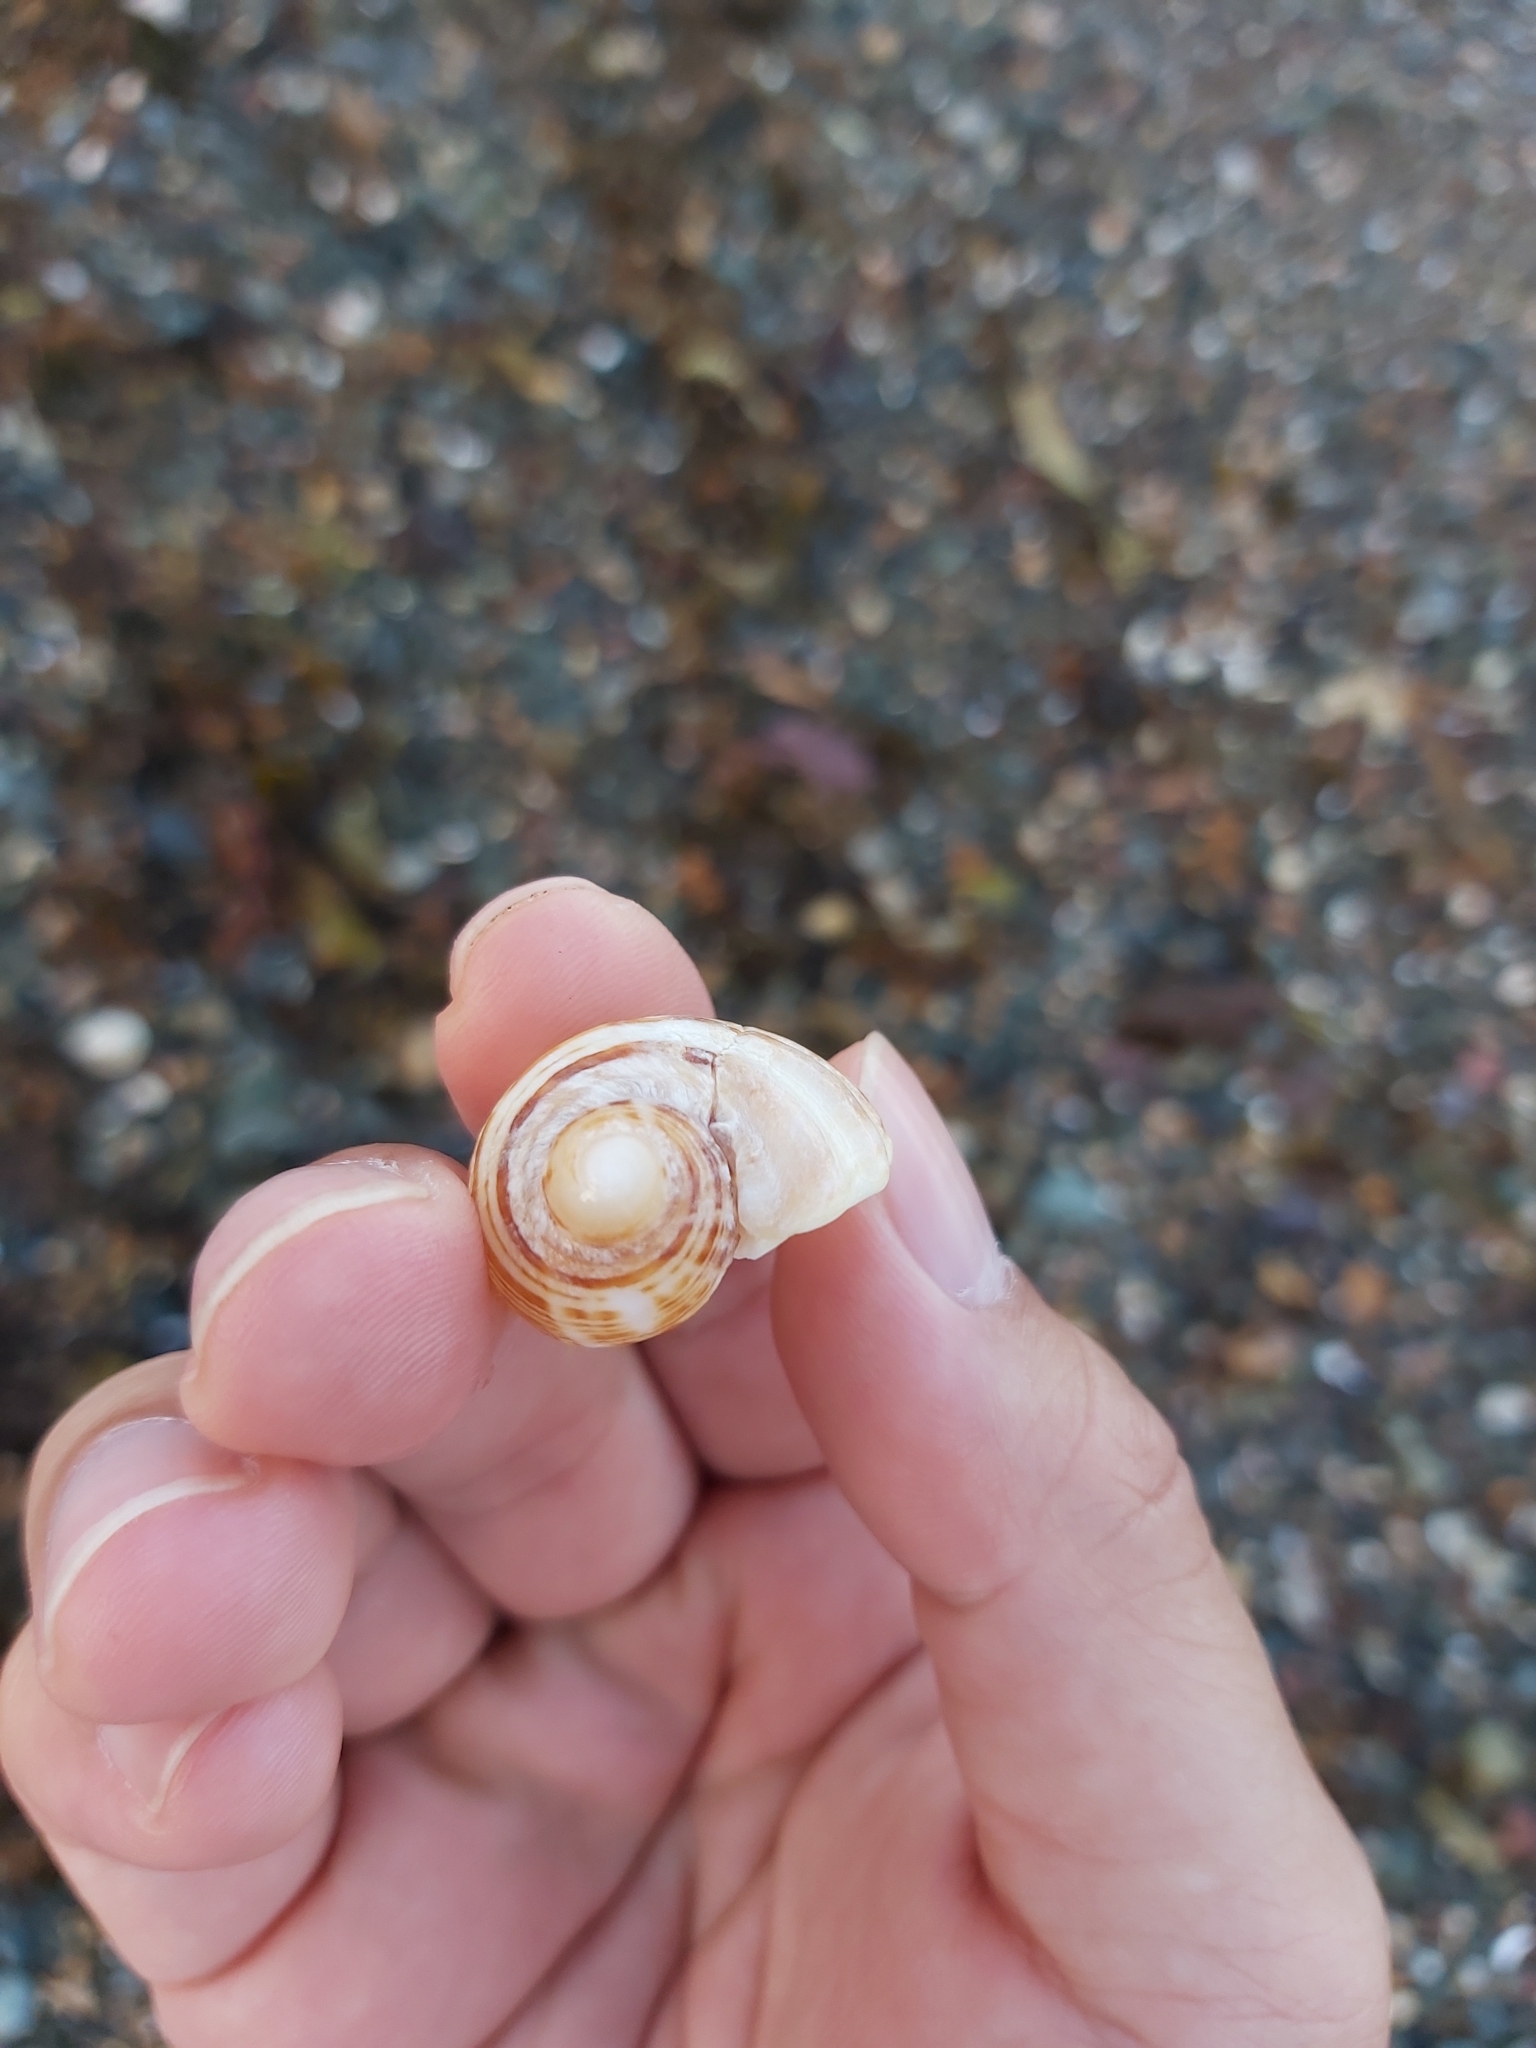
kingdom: Animalia
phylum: Mollusca
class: Gastropoda
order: Neogastropoda
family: Muricidae
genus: Dicathais
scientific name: Dicathais orbita
